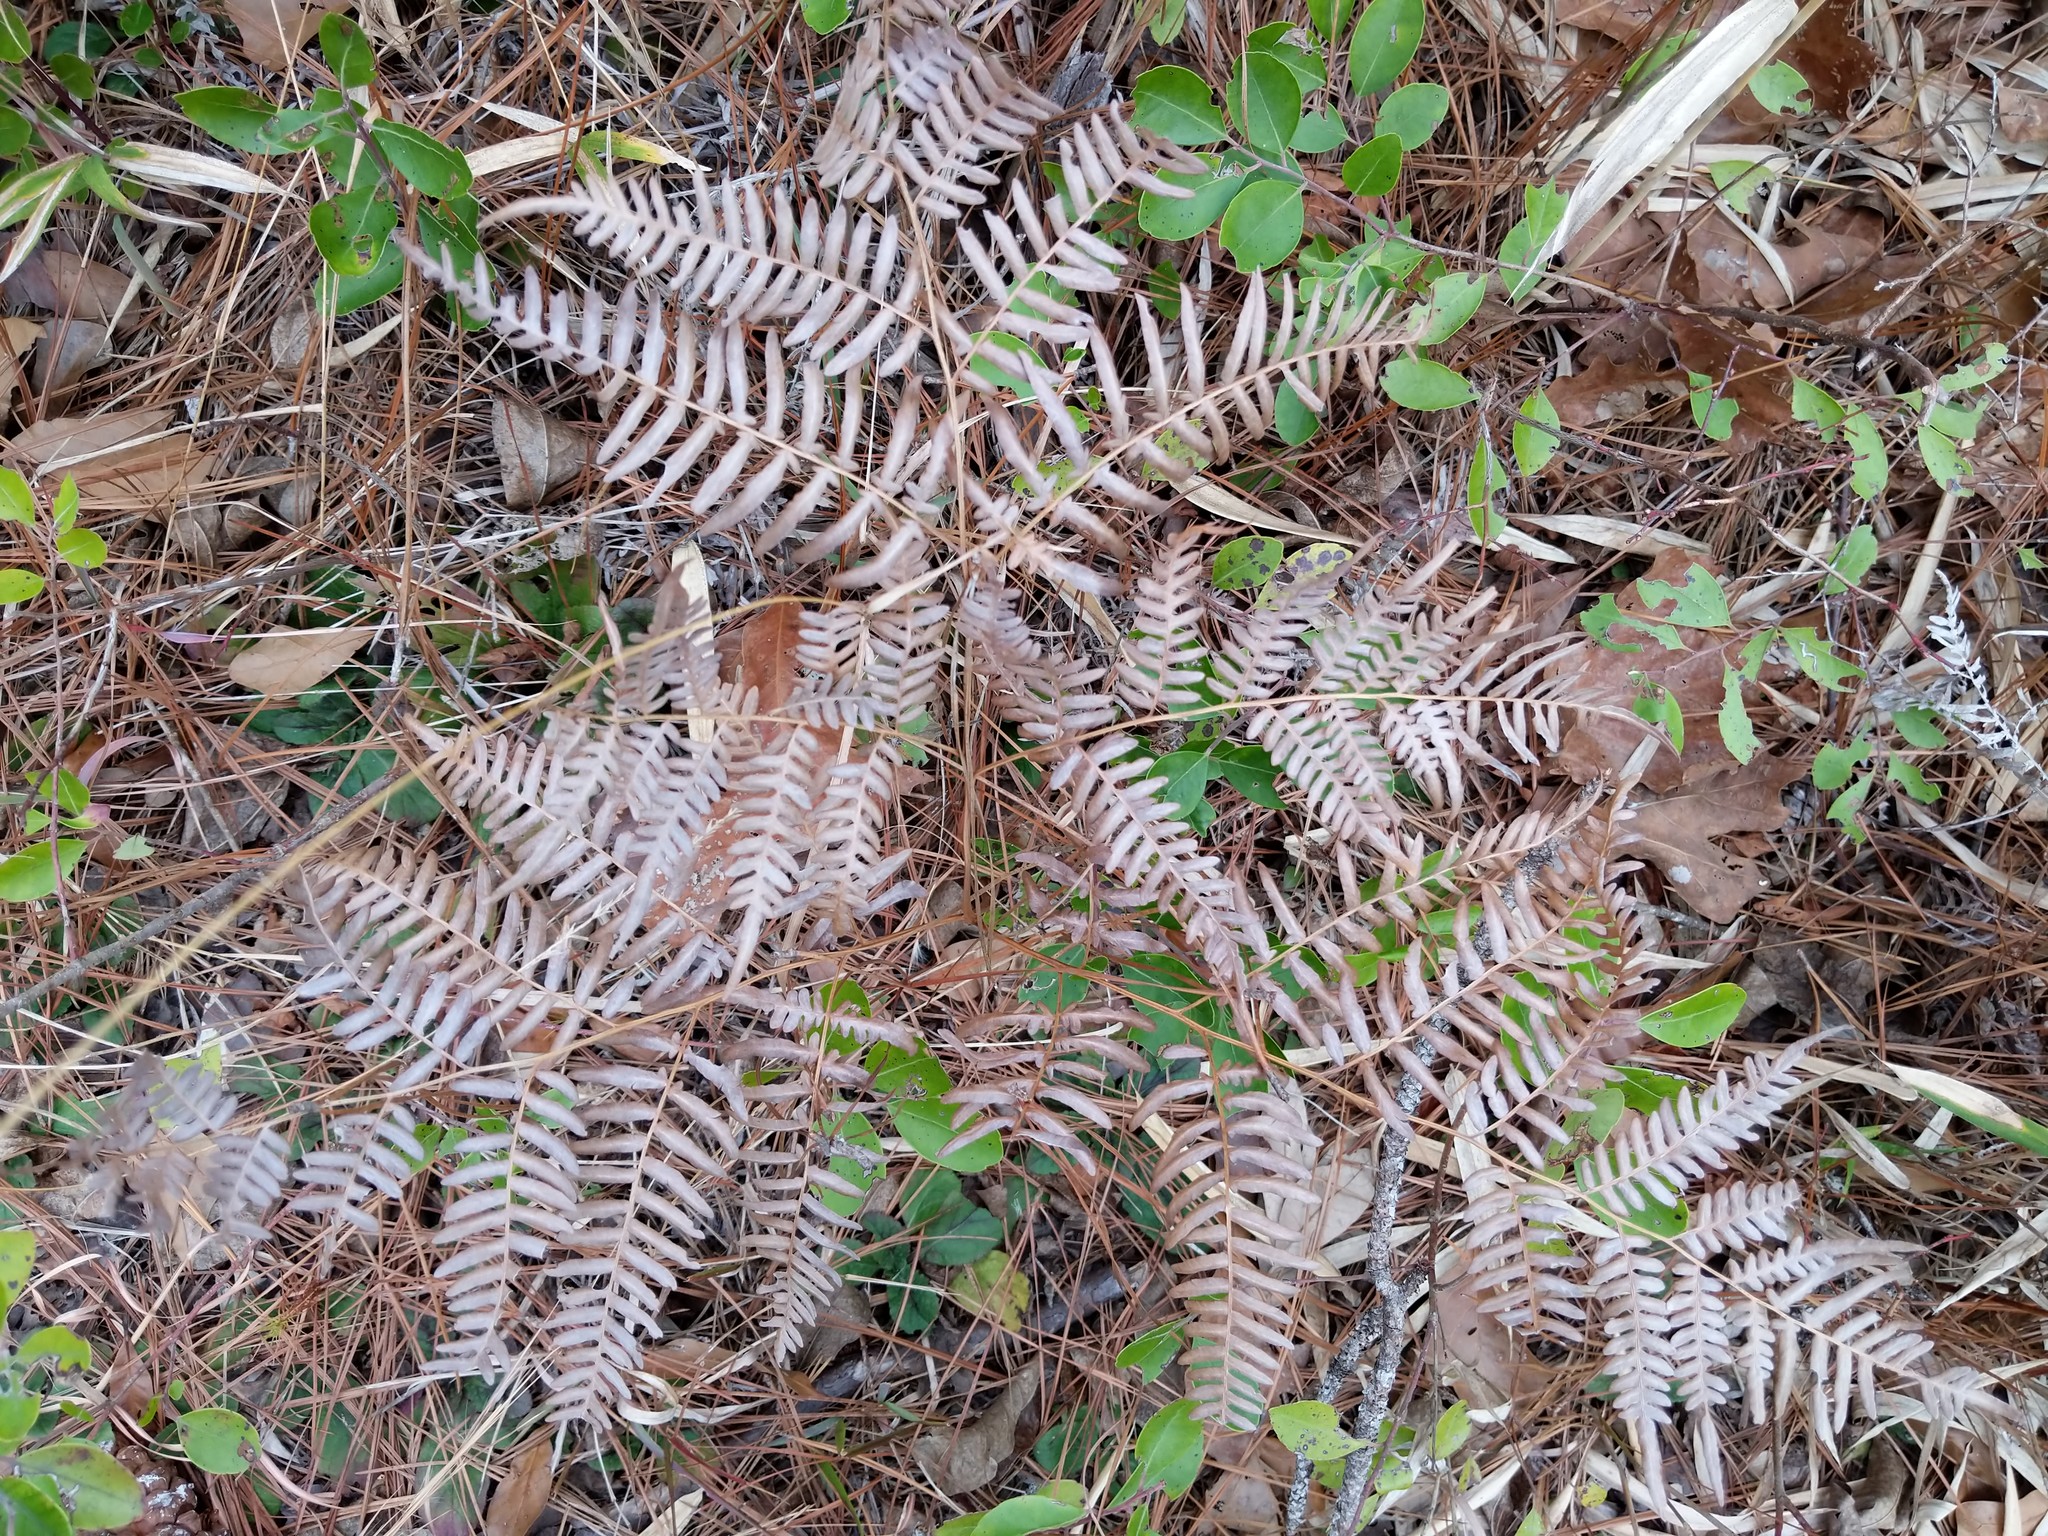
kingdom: Plantae
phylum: Tracheophyta
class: Polypodiopsida
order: Polypodiales
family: Dennstaedtiaceae
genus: Pteridium
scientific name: Pteridium aquilinum
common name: Bracken
